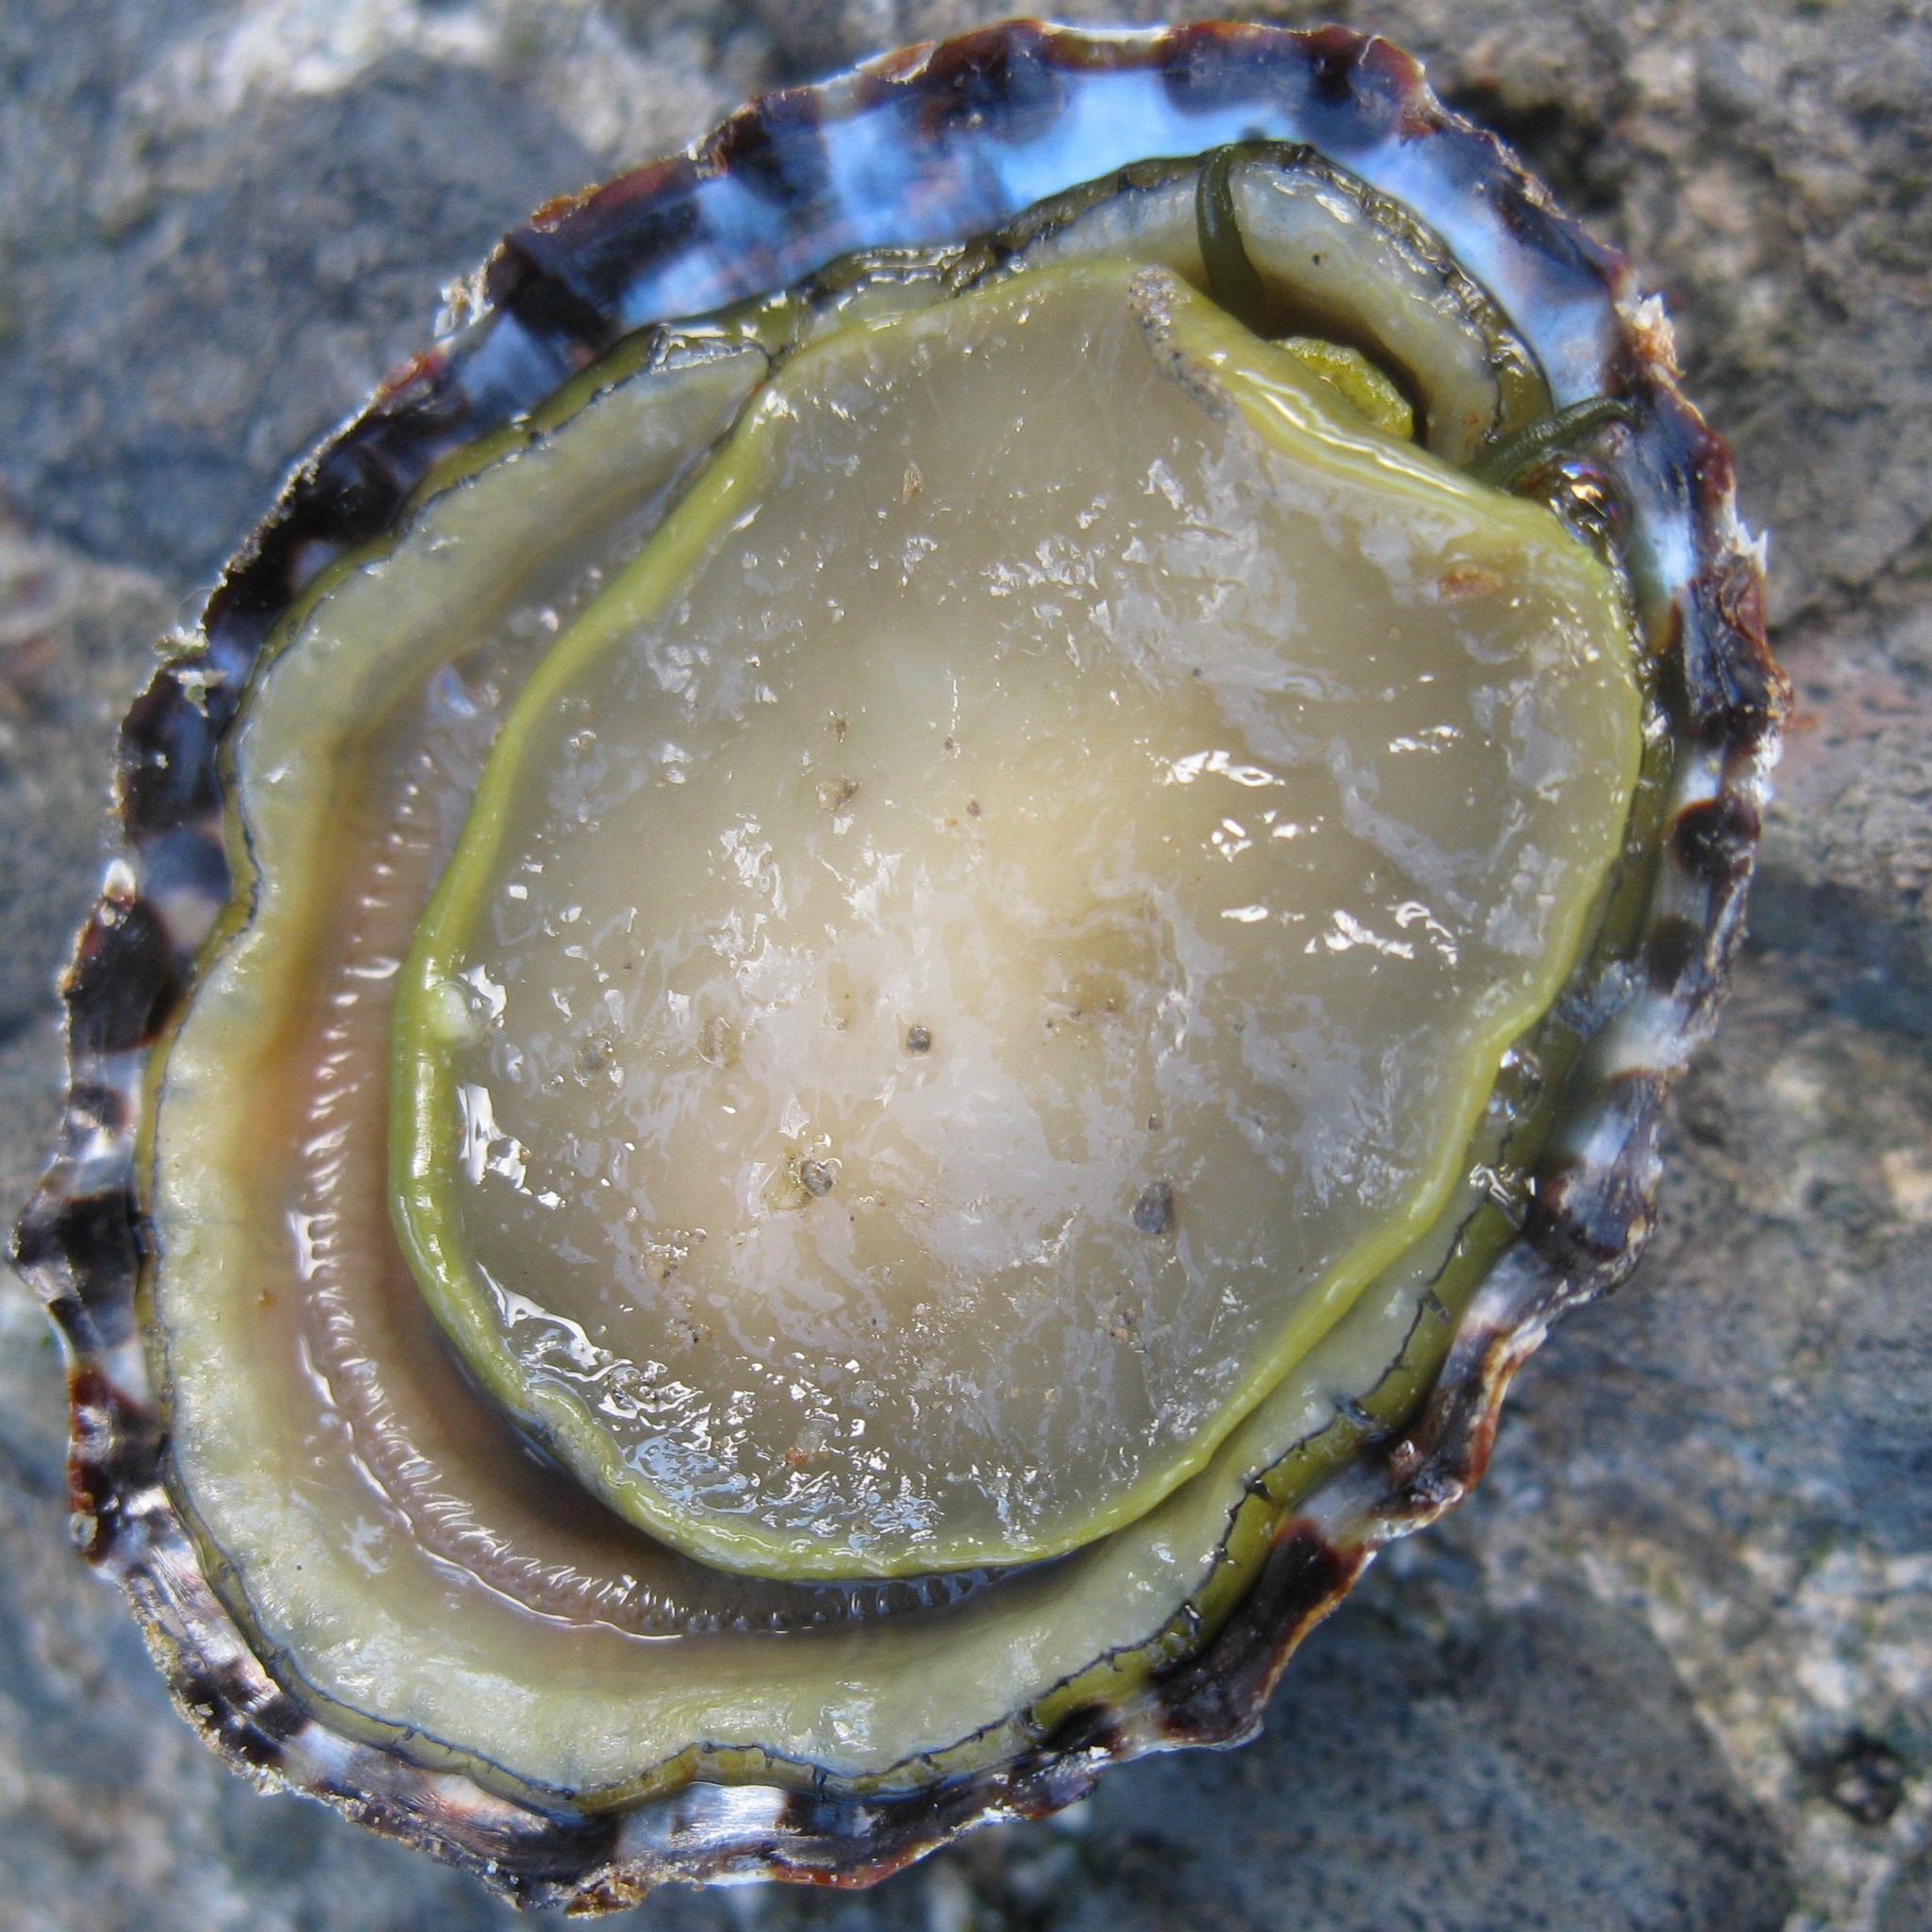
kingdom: Animalia
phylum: Mollusca
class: Gastropoda
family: Nacellidae
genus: Cellana
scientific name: Cellana denticulata
